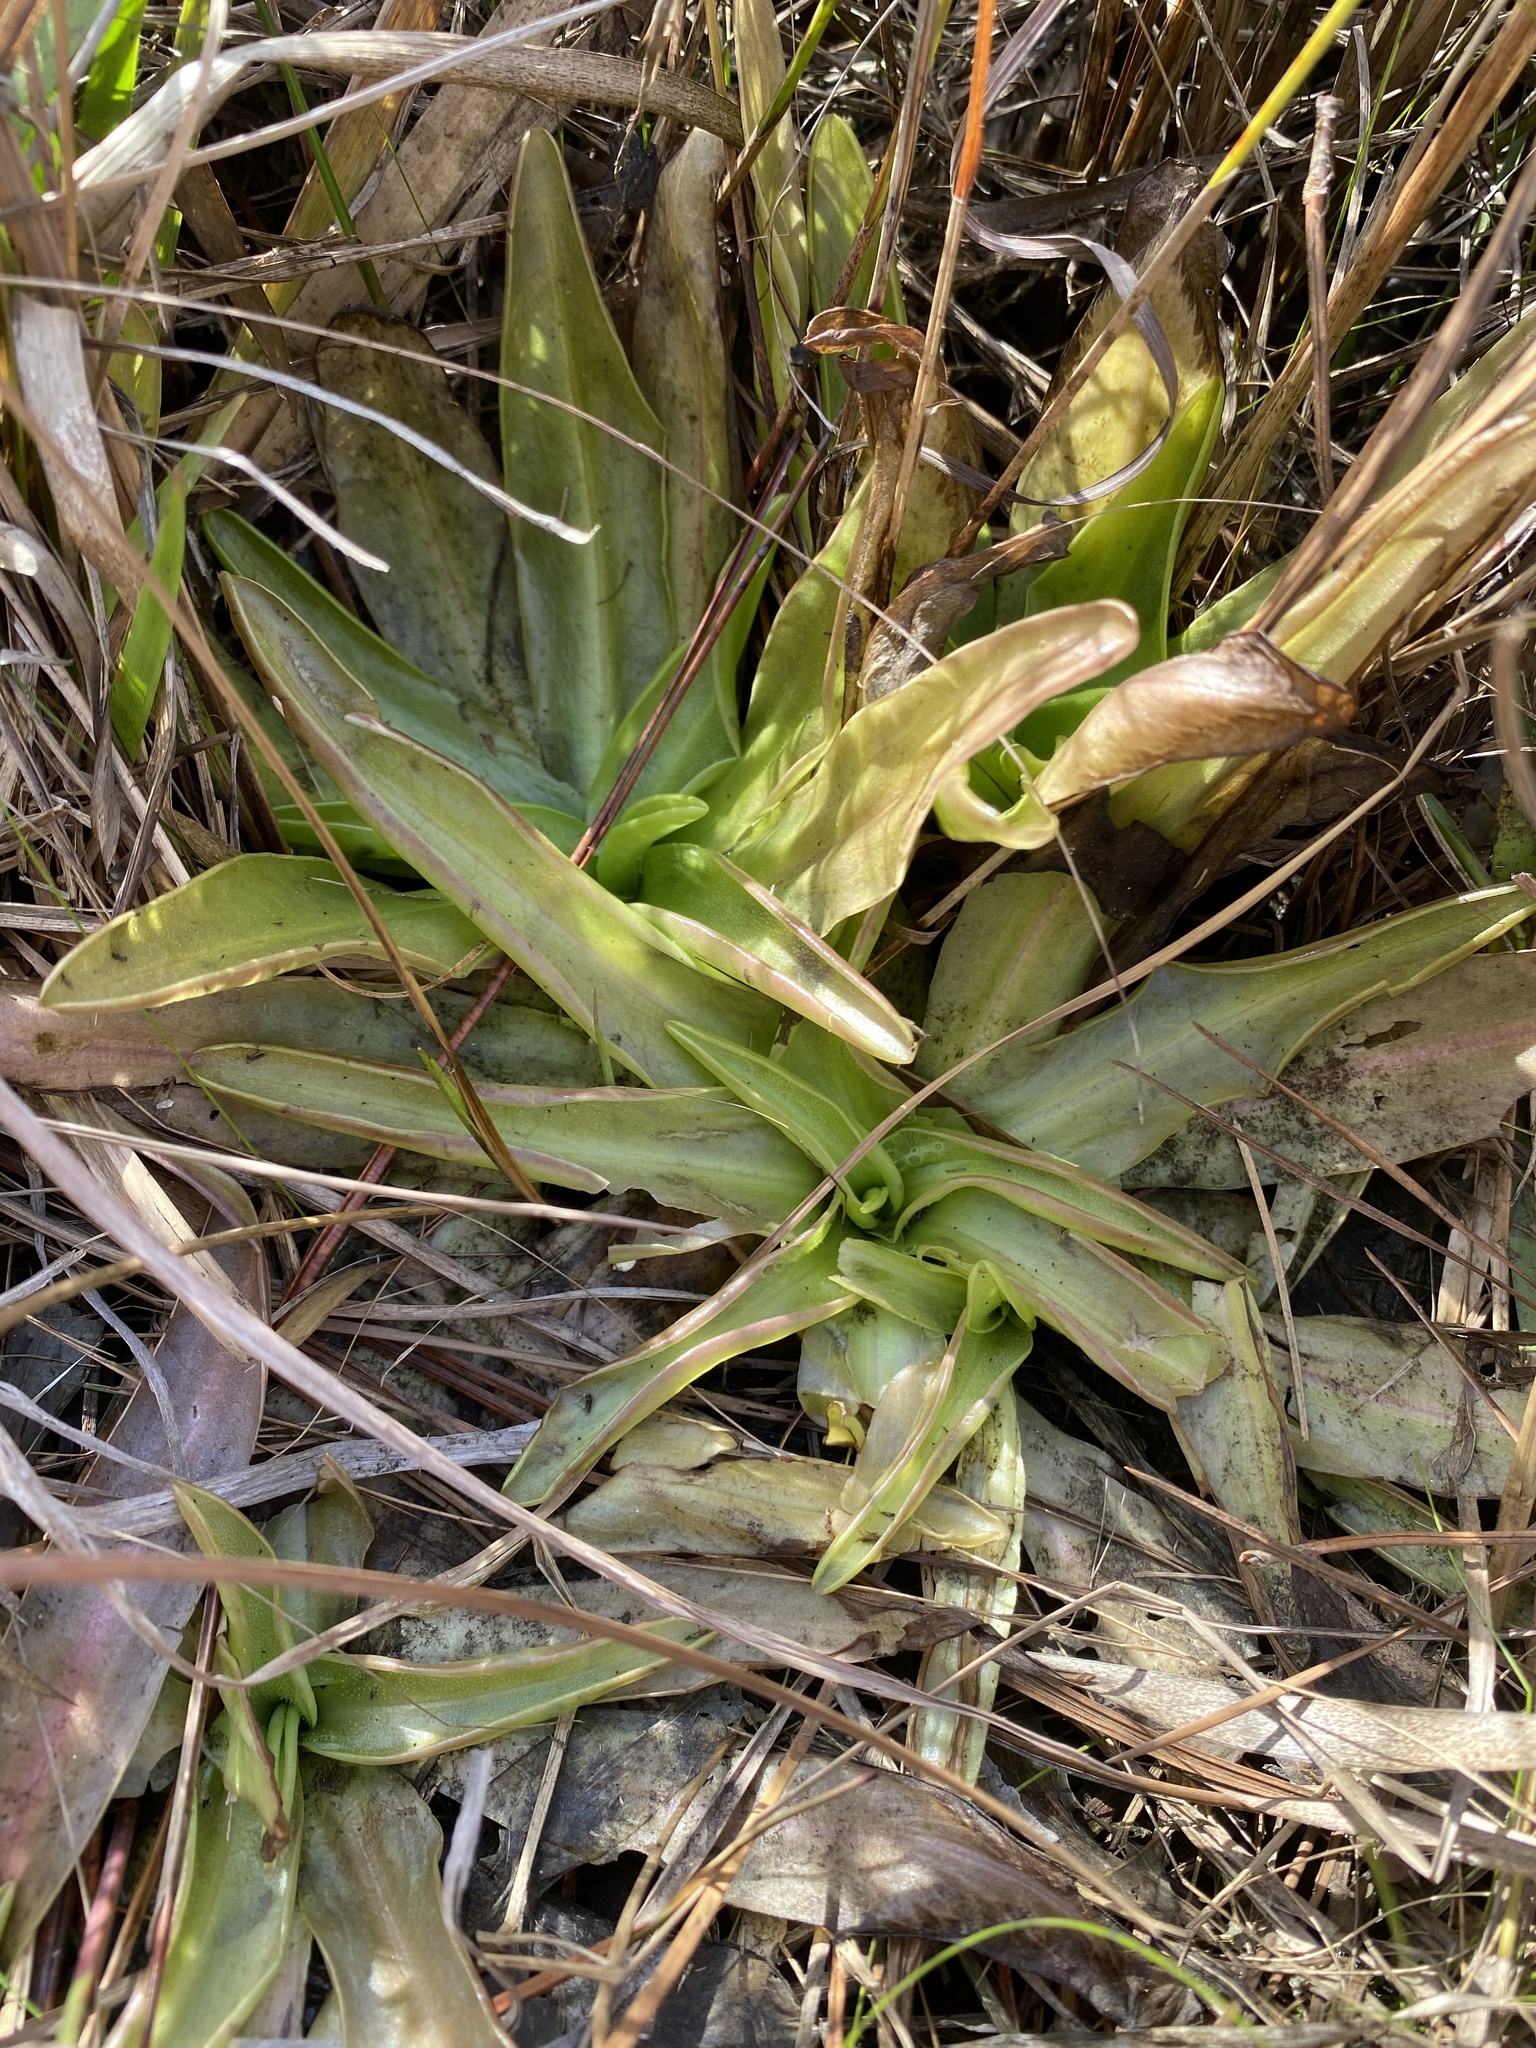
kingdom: Plantae
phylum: Tracheophyta
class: Magnoliopsida
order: Lamiales
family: Lentibulariaceae
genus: Pinguicula
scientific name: Pinguicula planifolia
